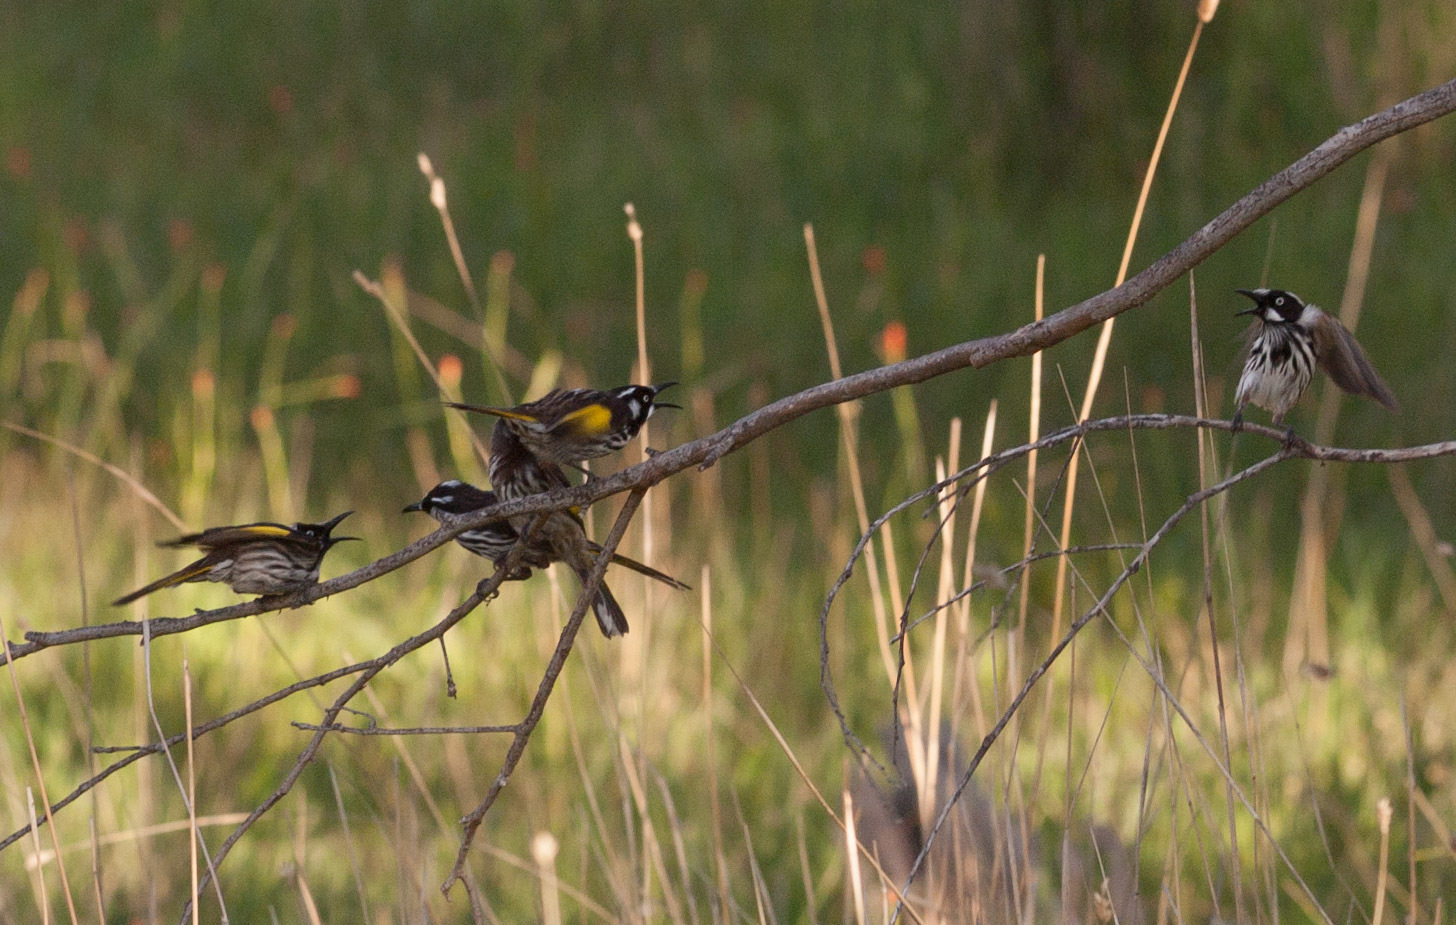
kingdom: Animalia
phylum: Chordata
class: Aves
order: Passeriformes
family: Meliphagidae
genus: Phylidonyris
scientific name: Phylidonyris novaehollandiae
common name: New holland honeyeater
